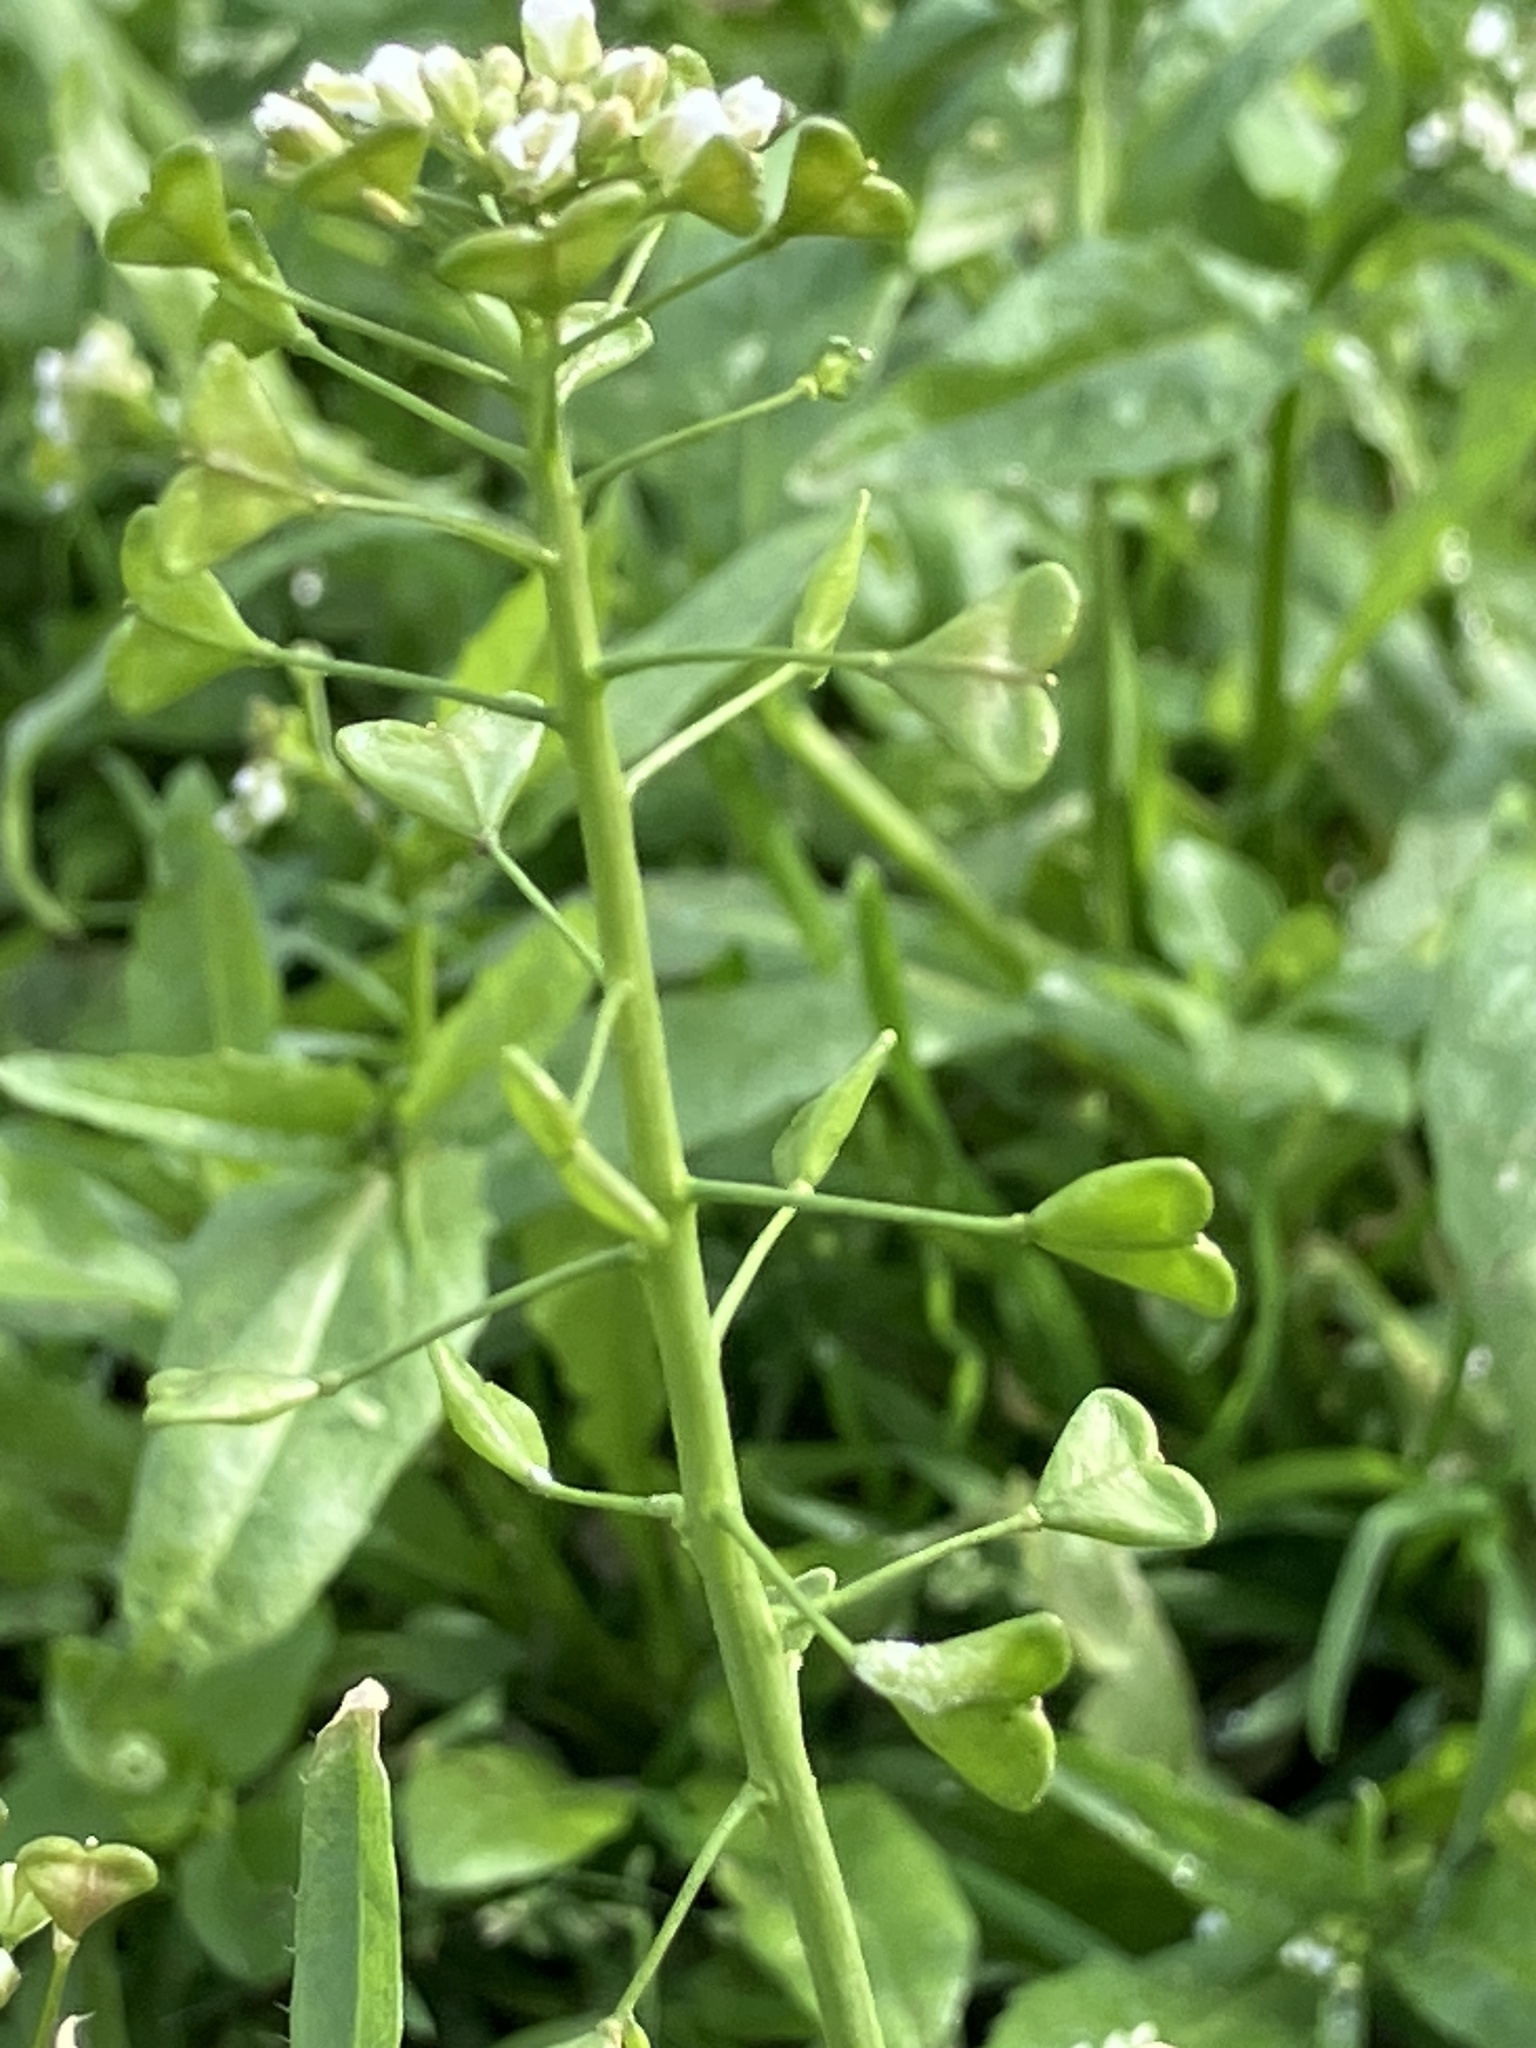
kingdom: Plantae
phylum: Tracheophyta
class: Magnoliopsida
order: Brassicales
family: Brassicaceae
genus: Capsella
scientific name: Capsella bursa-pastoris
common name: Shepherd's purse
